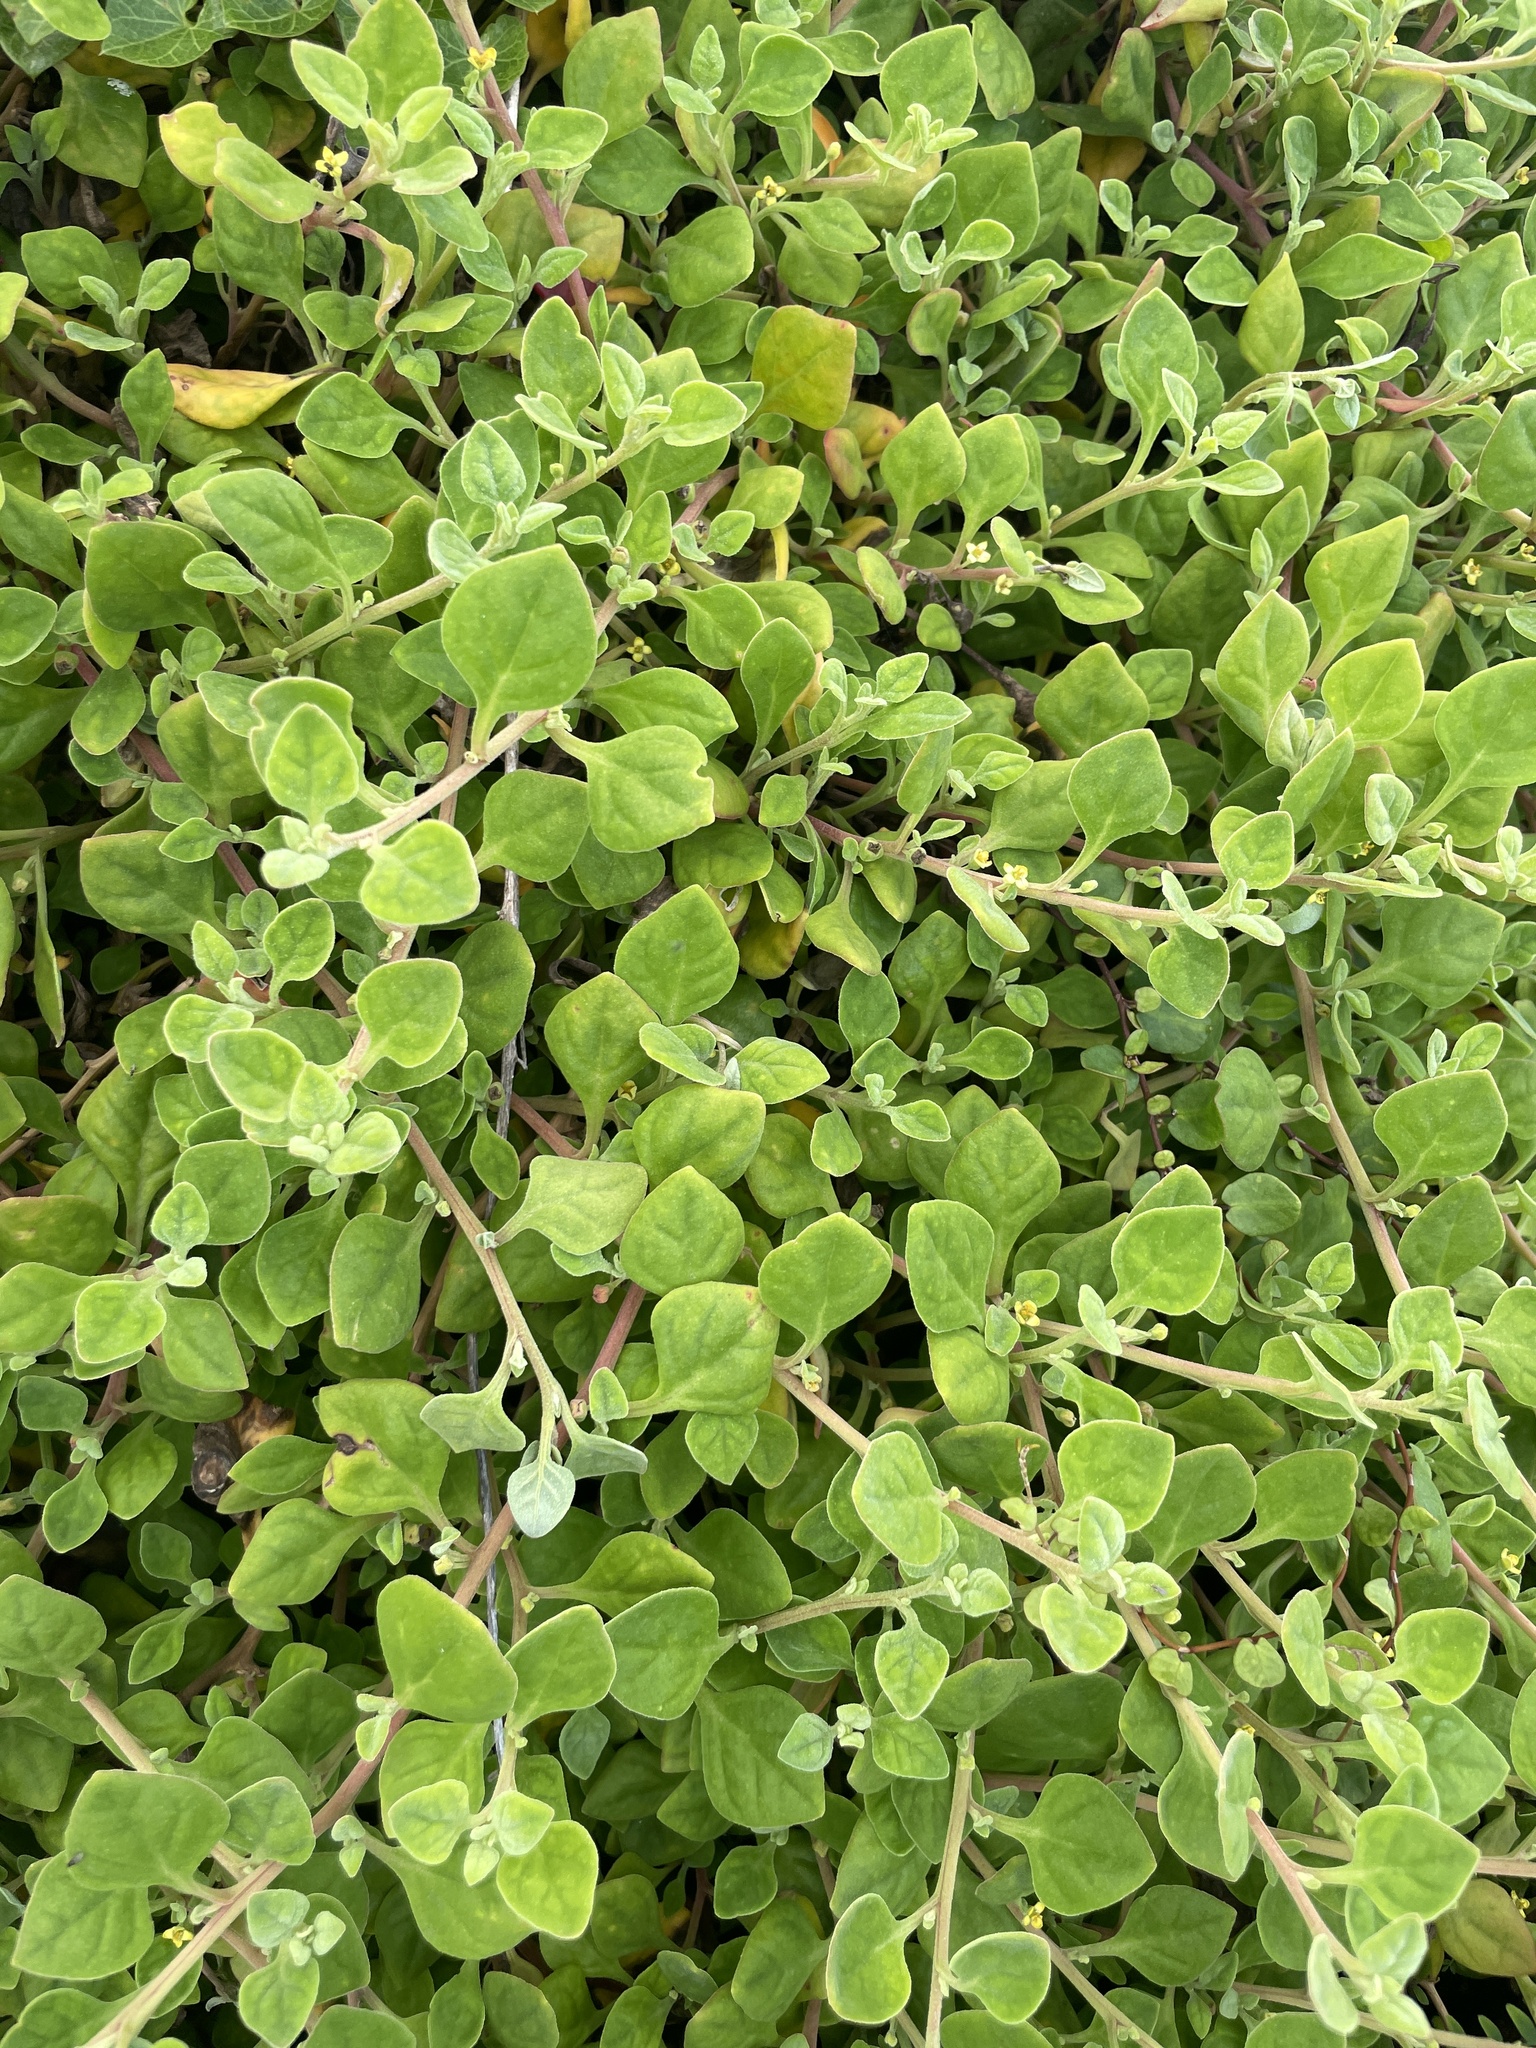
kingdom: Plantae
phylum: Tracheophyta
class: Magnoliopsida
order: Caryophyllales
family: Aizoaceae
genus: Tetragonia
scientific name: Tetragonia implexicoma
